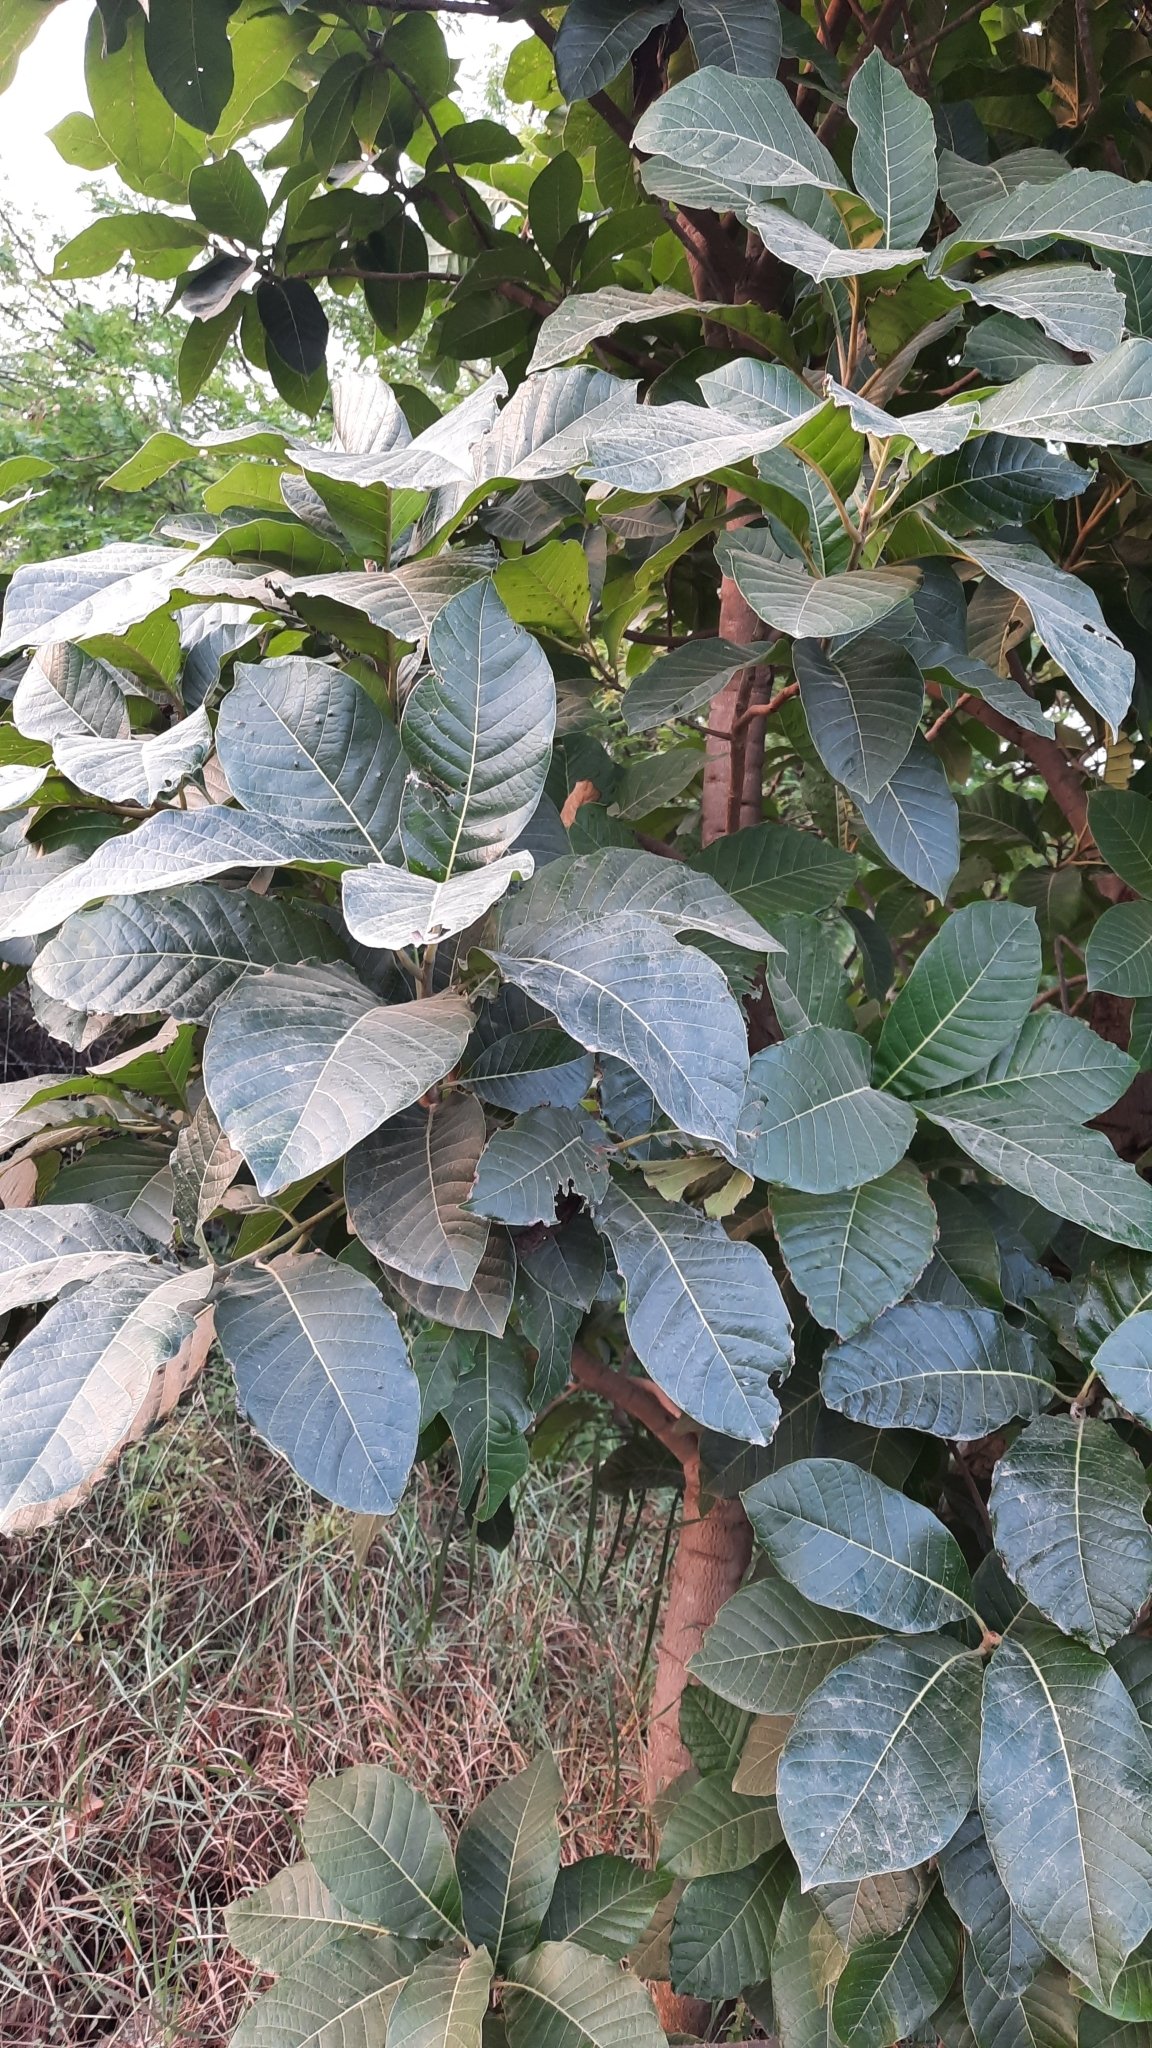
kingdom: Plantae
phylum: Tracheophyta
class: Magnoliopsida
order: Ericales
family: Sapotaceae
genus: Madhuca
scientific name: Madhuca longifolia
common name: Mowra-buttertree
